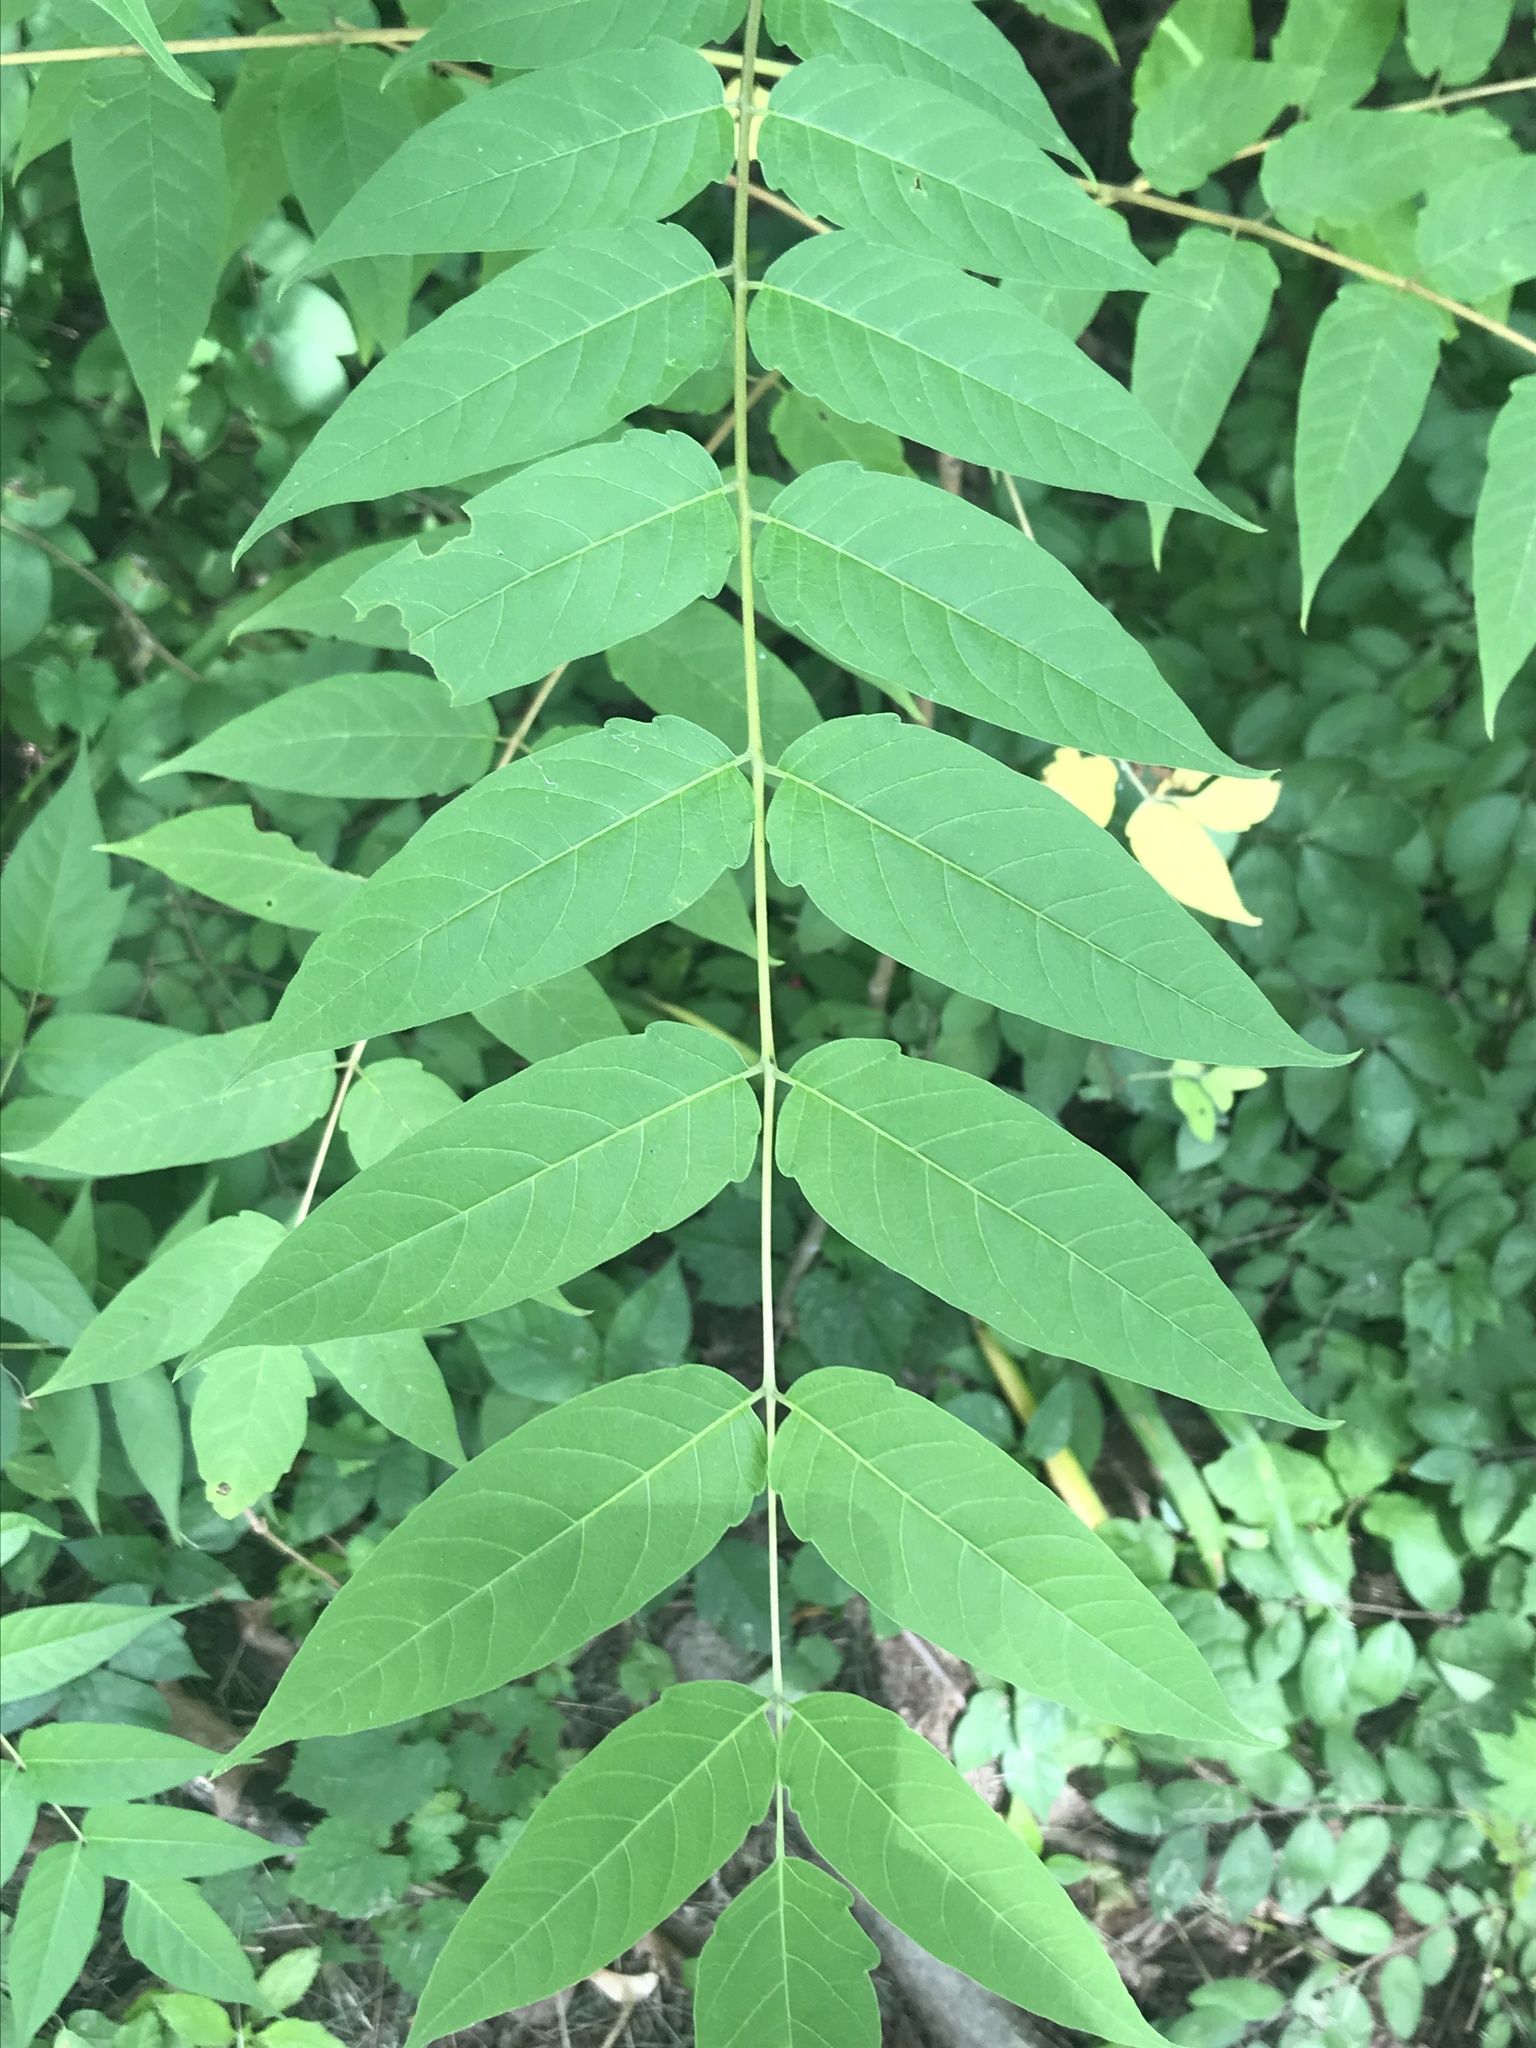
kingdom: Plantae
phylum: Tracheophyta
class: Magnoliopsida
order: Sapindales
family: Simaroubaceae
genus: Ailanthus
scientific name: Ailanthus altissima
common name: Tree-of-heaven
